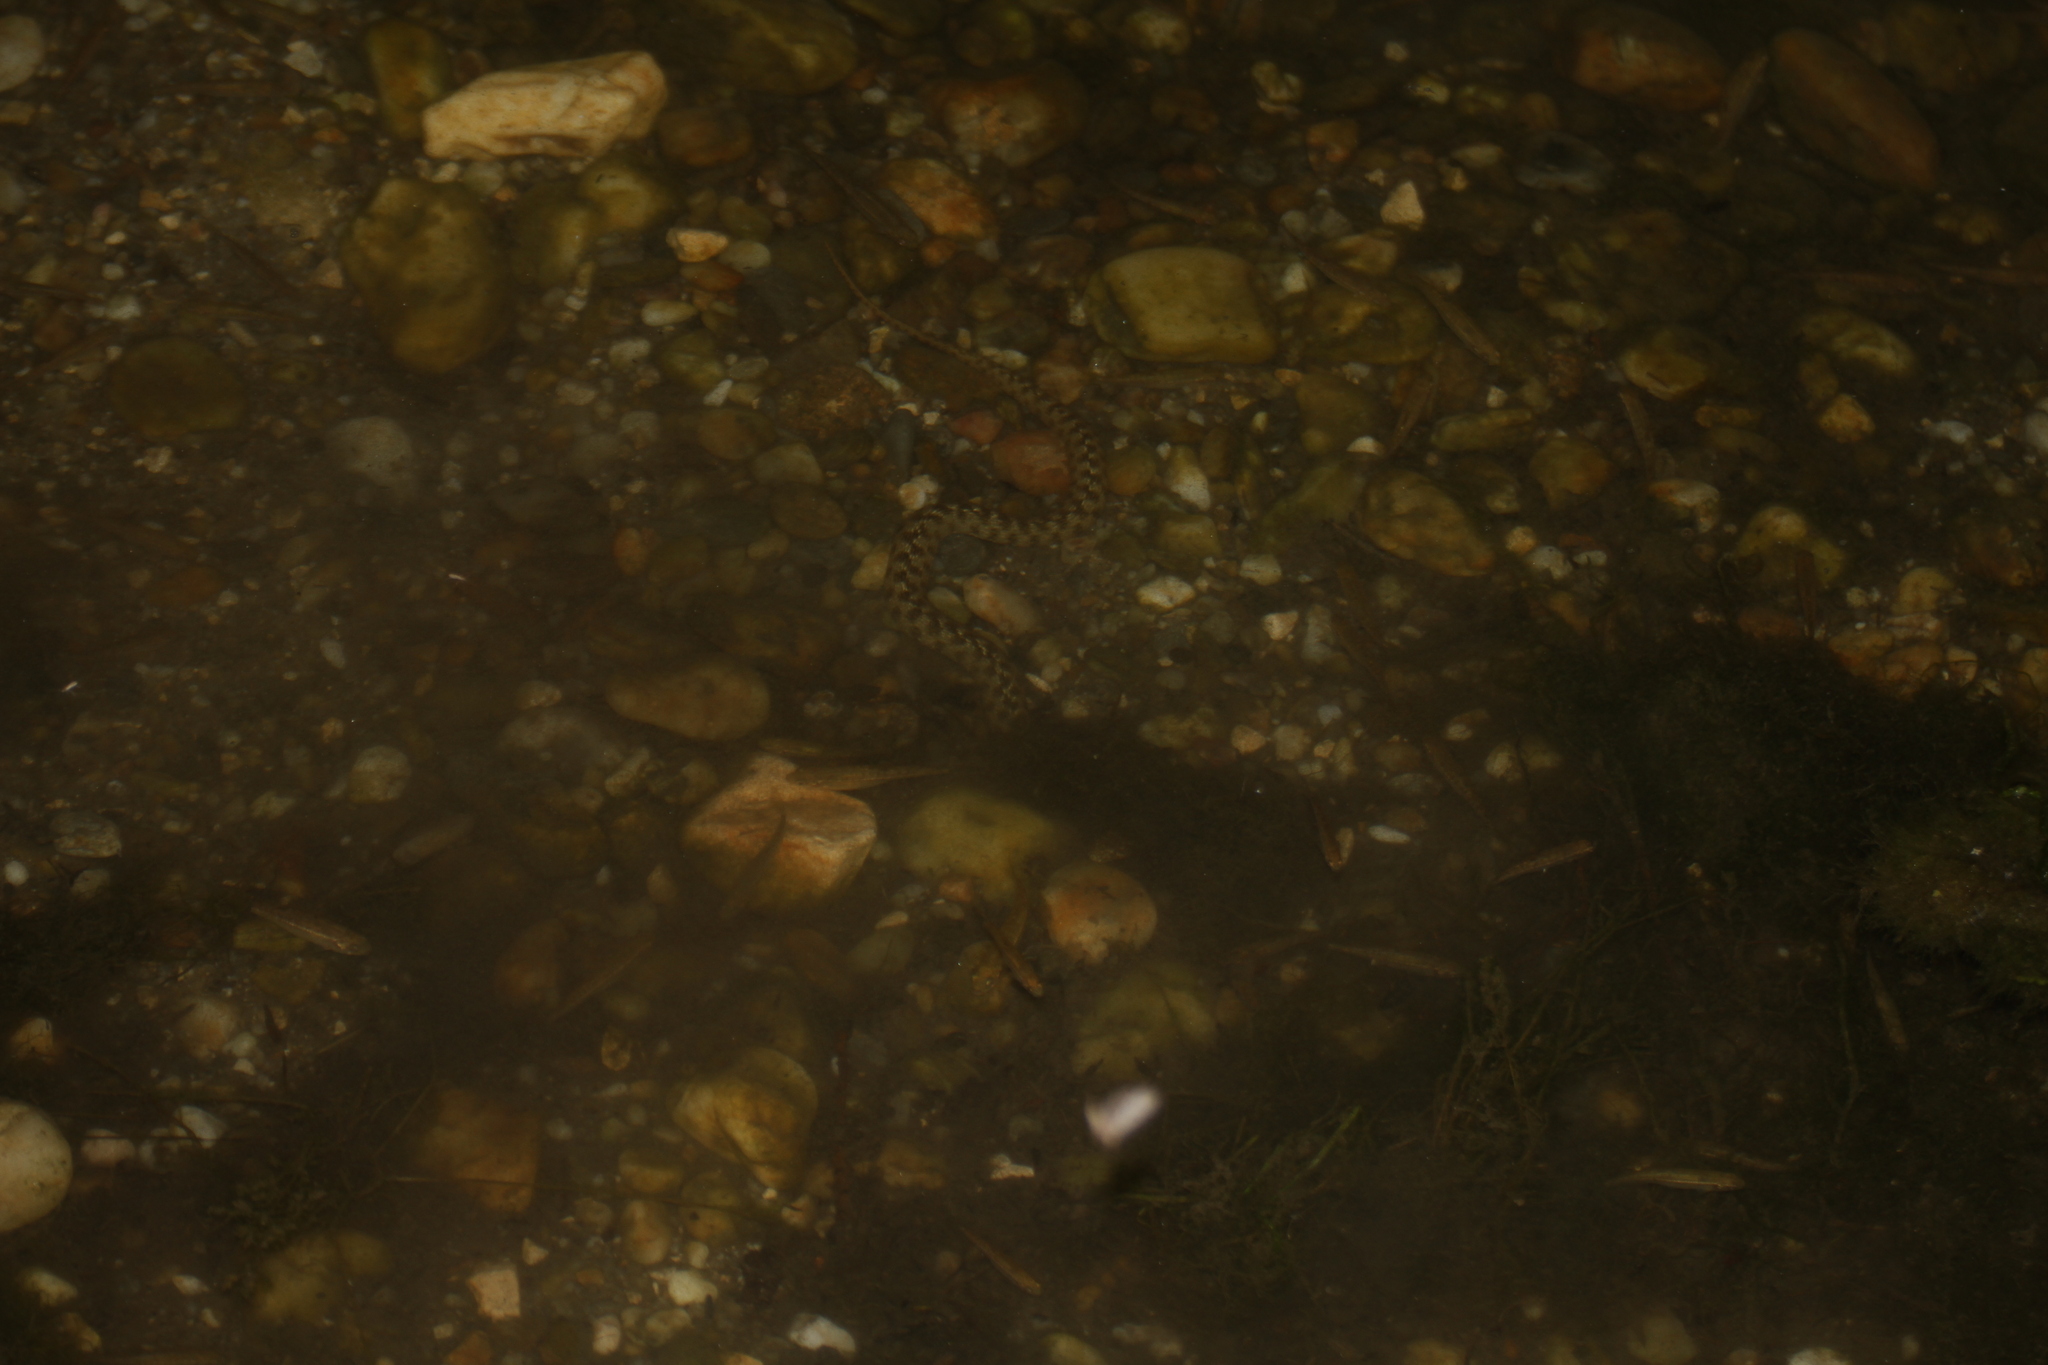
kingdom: Animalia
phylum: Chordata
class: Squamata
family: Colubridae
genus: Natrix
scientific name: Natrix maura
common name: Viperine water snake
